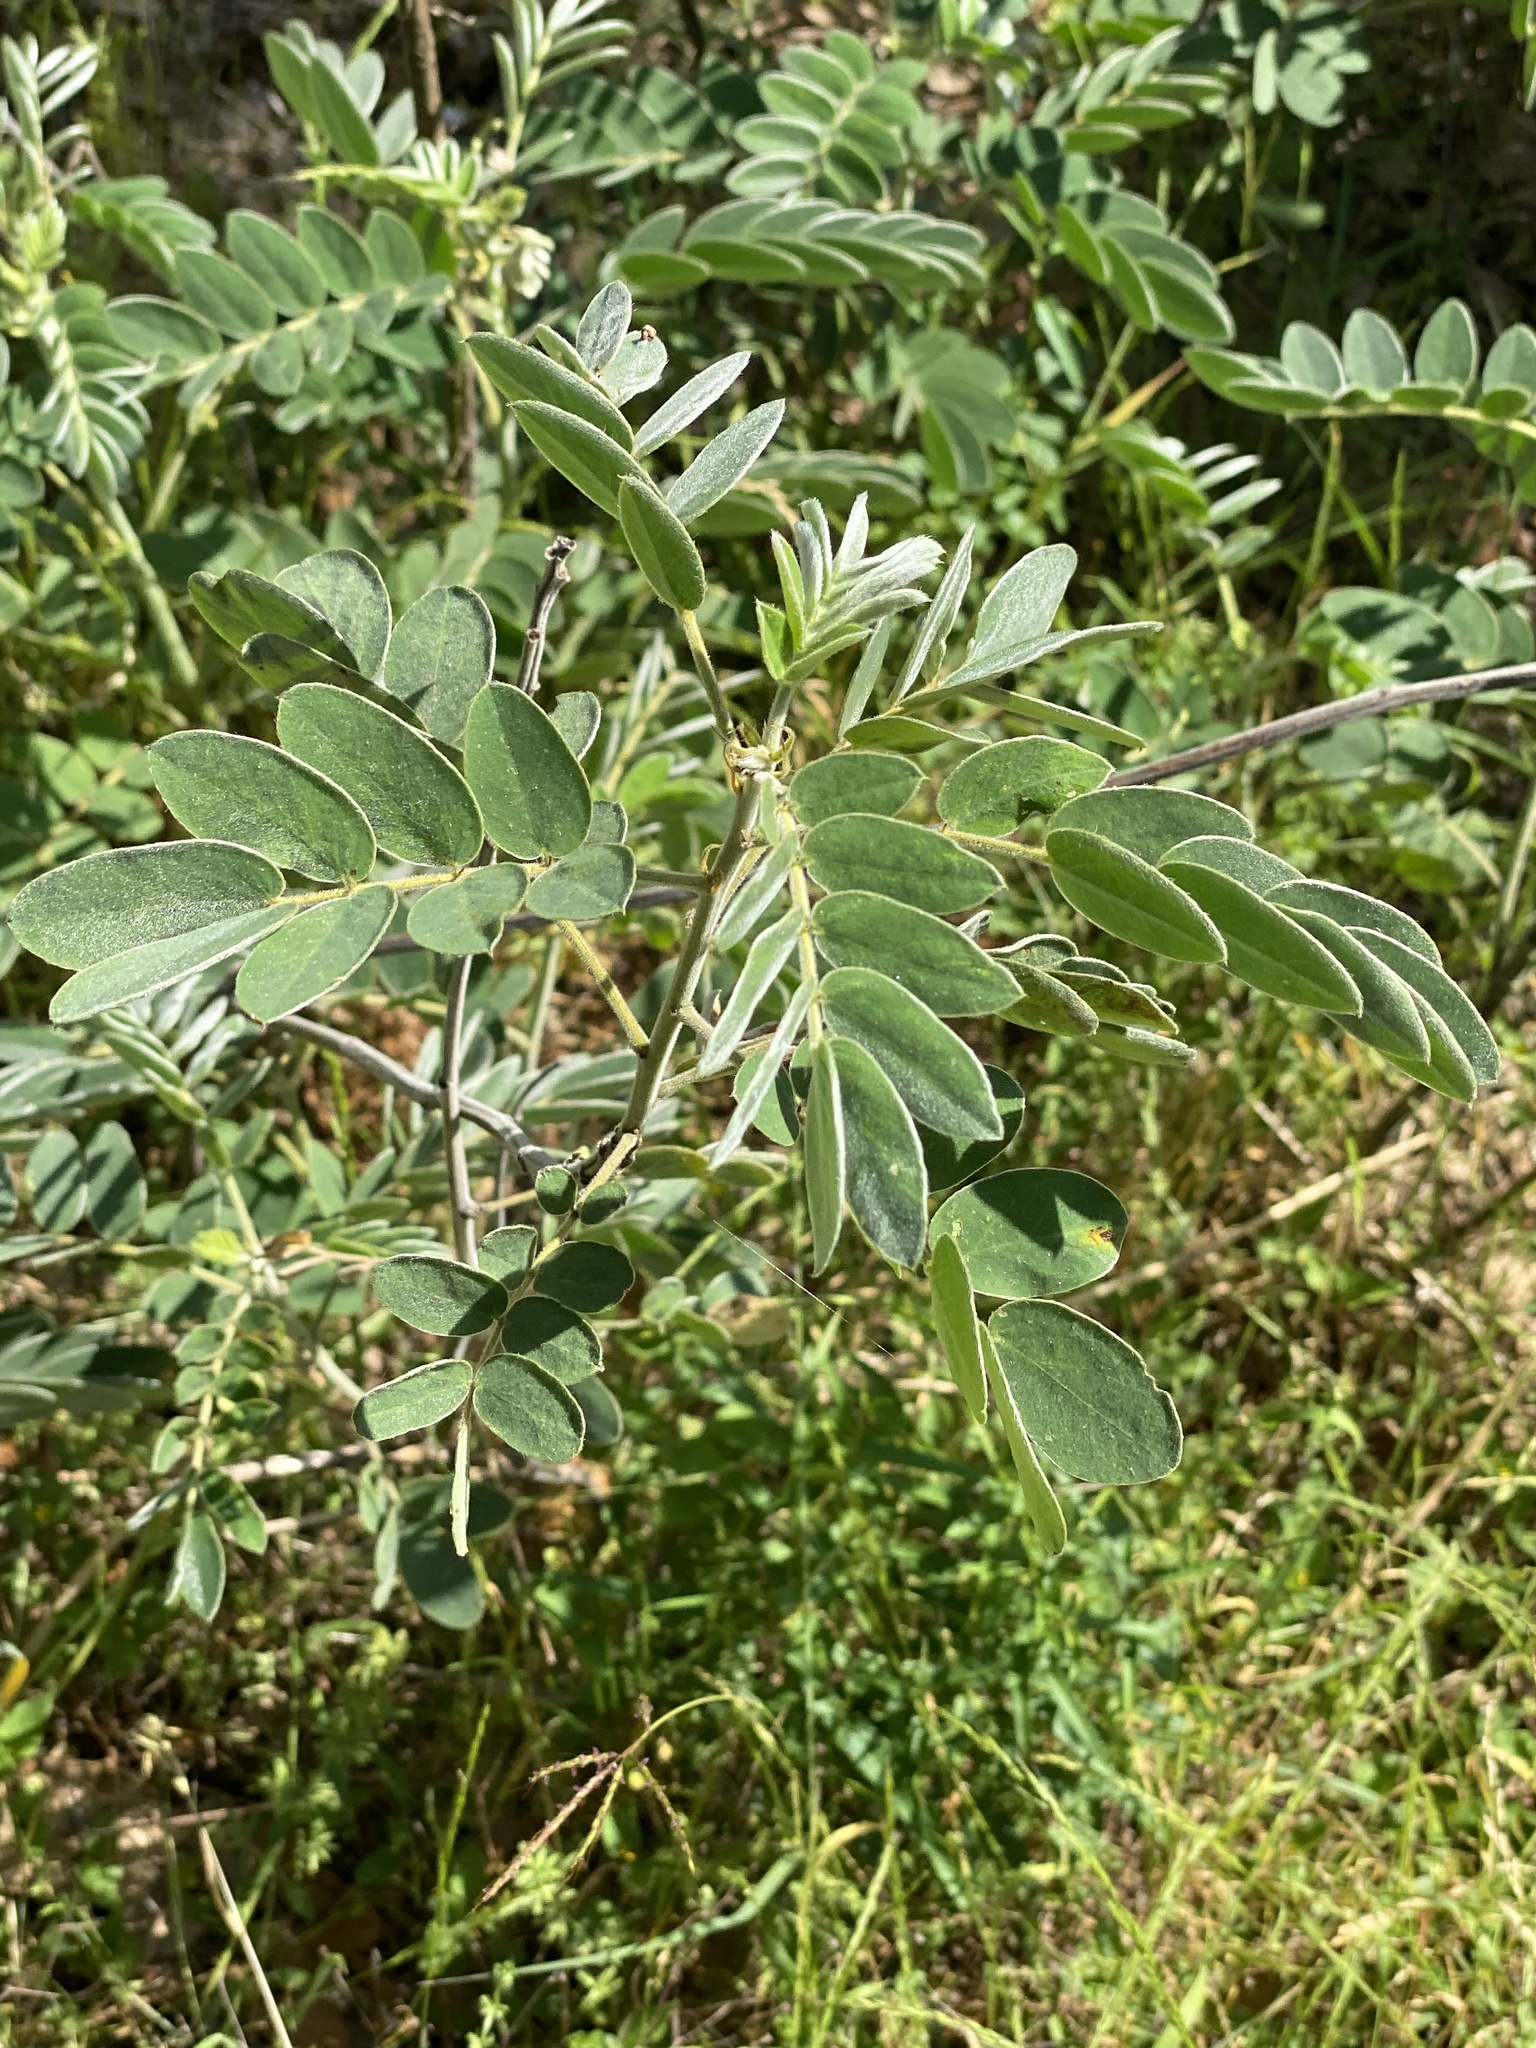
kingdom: Plantae
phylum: Tracheophyta
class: Magnoliopsida
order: Fabales
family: Fabaceae
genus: Senna
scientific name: Senna lindheimeriana
